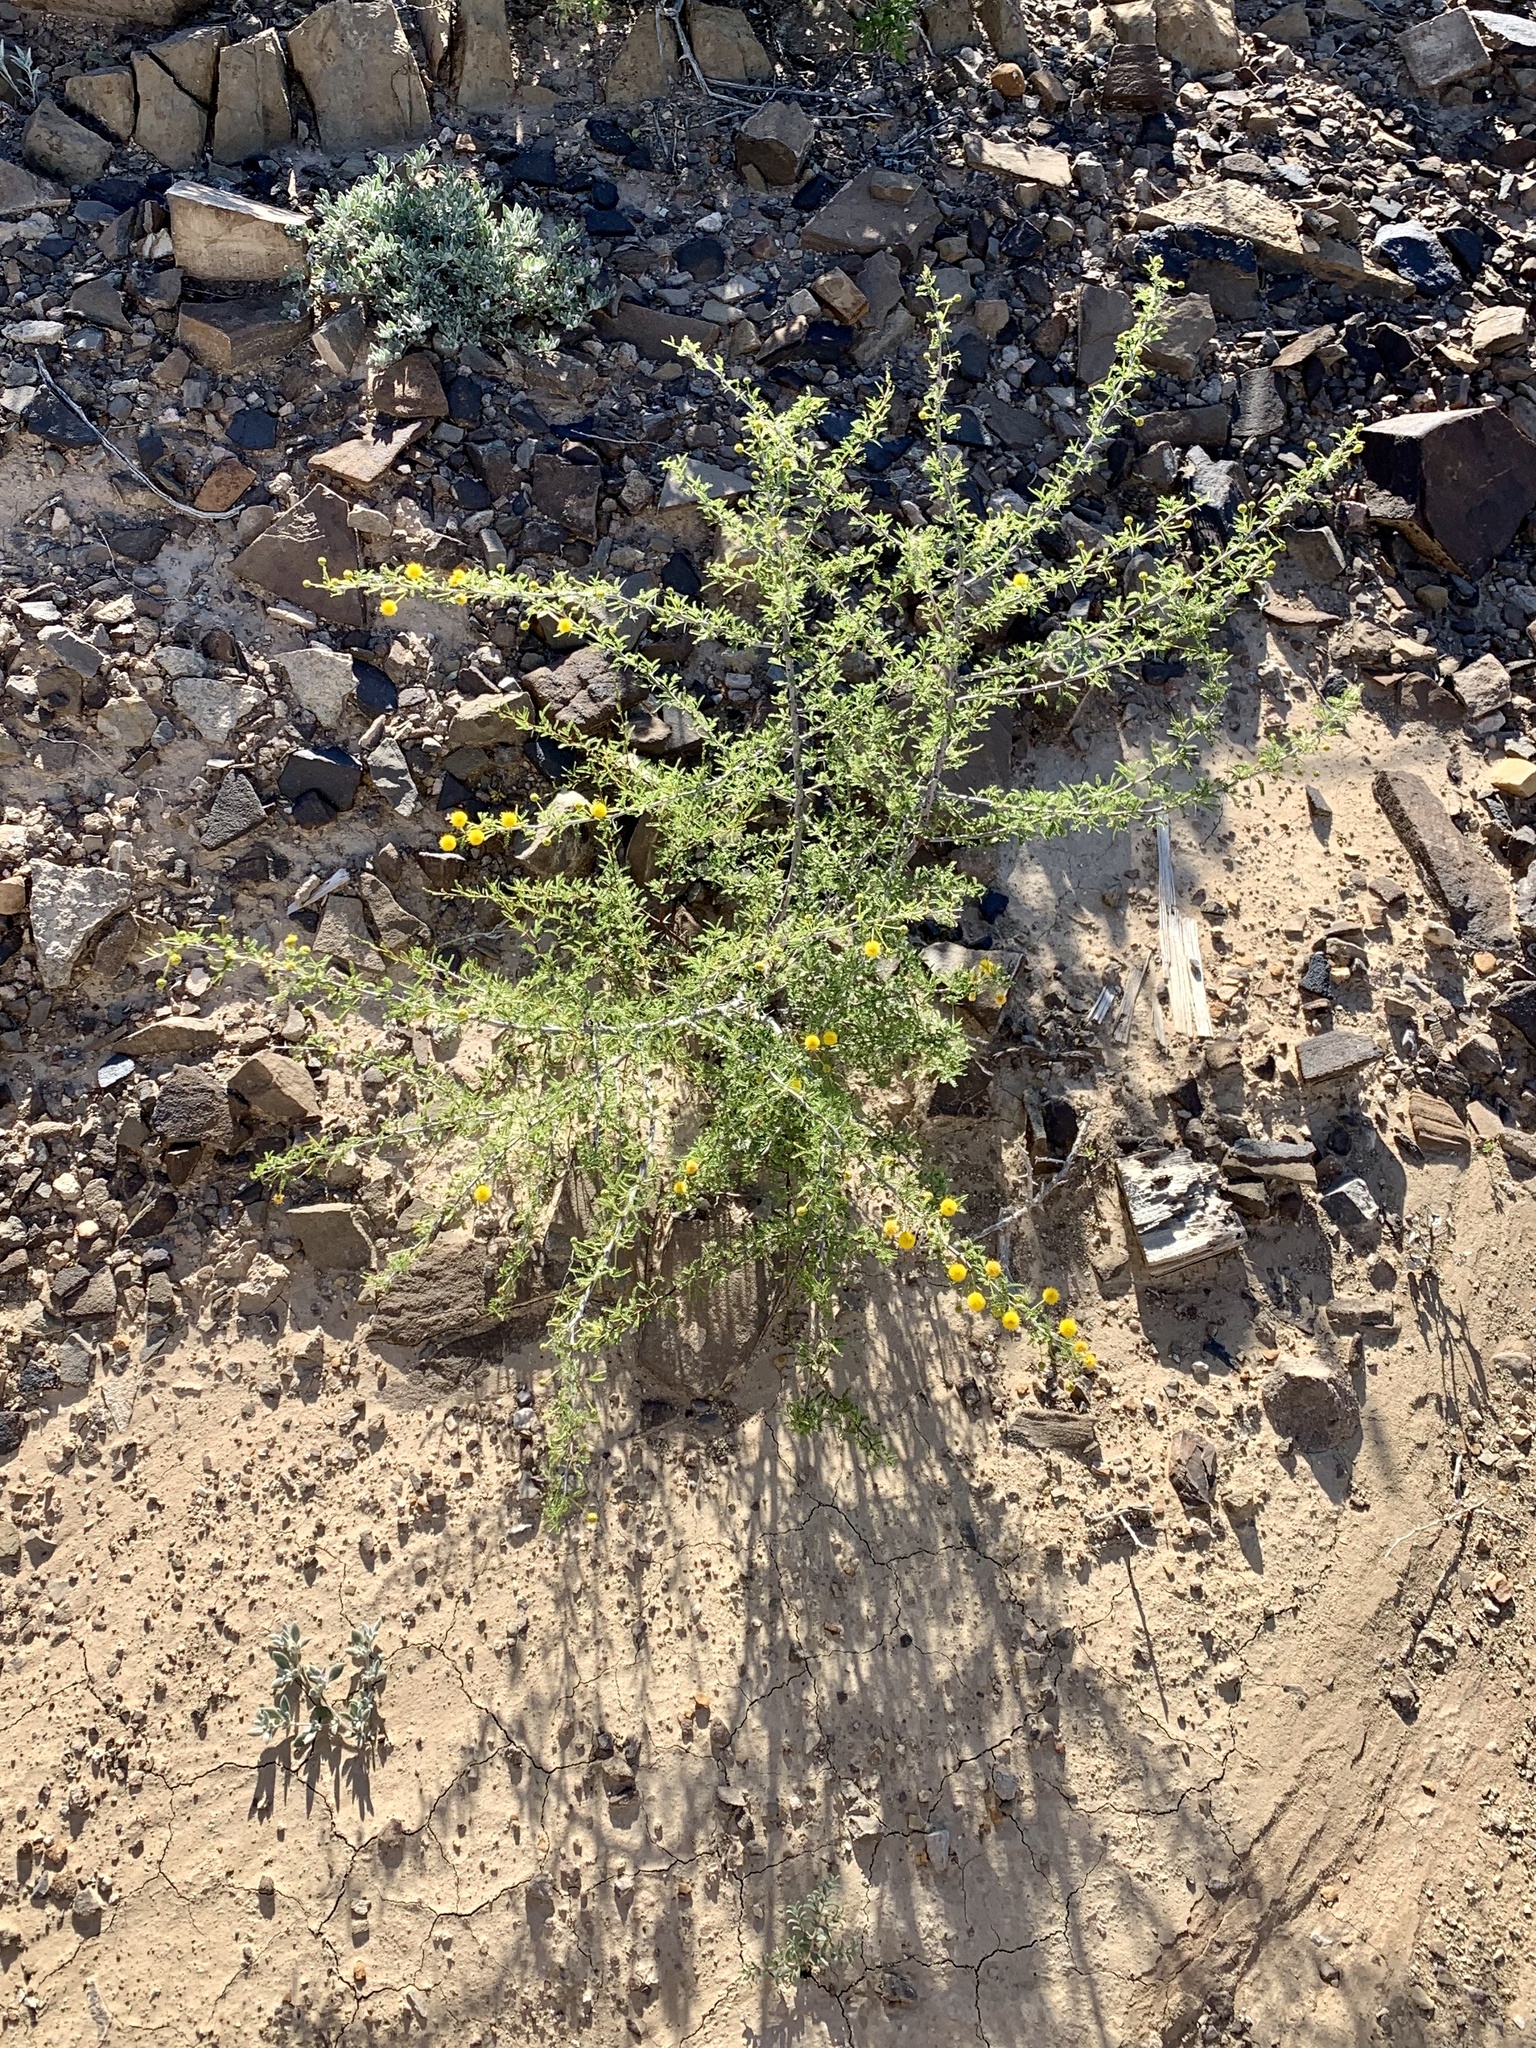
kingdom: Plantae
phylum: Tracheophyta
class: Magnoliopsida
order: Fabales
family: Fabaceae
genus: Vachellia
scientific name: Vachellia vernicosa
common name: Viscid acacia
